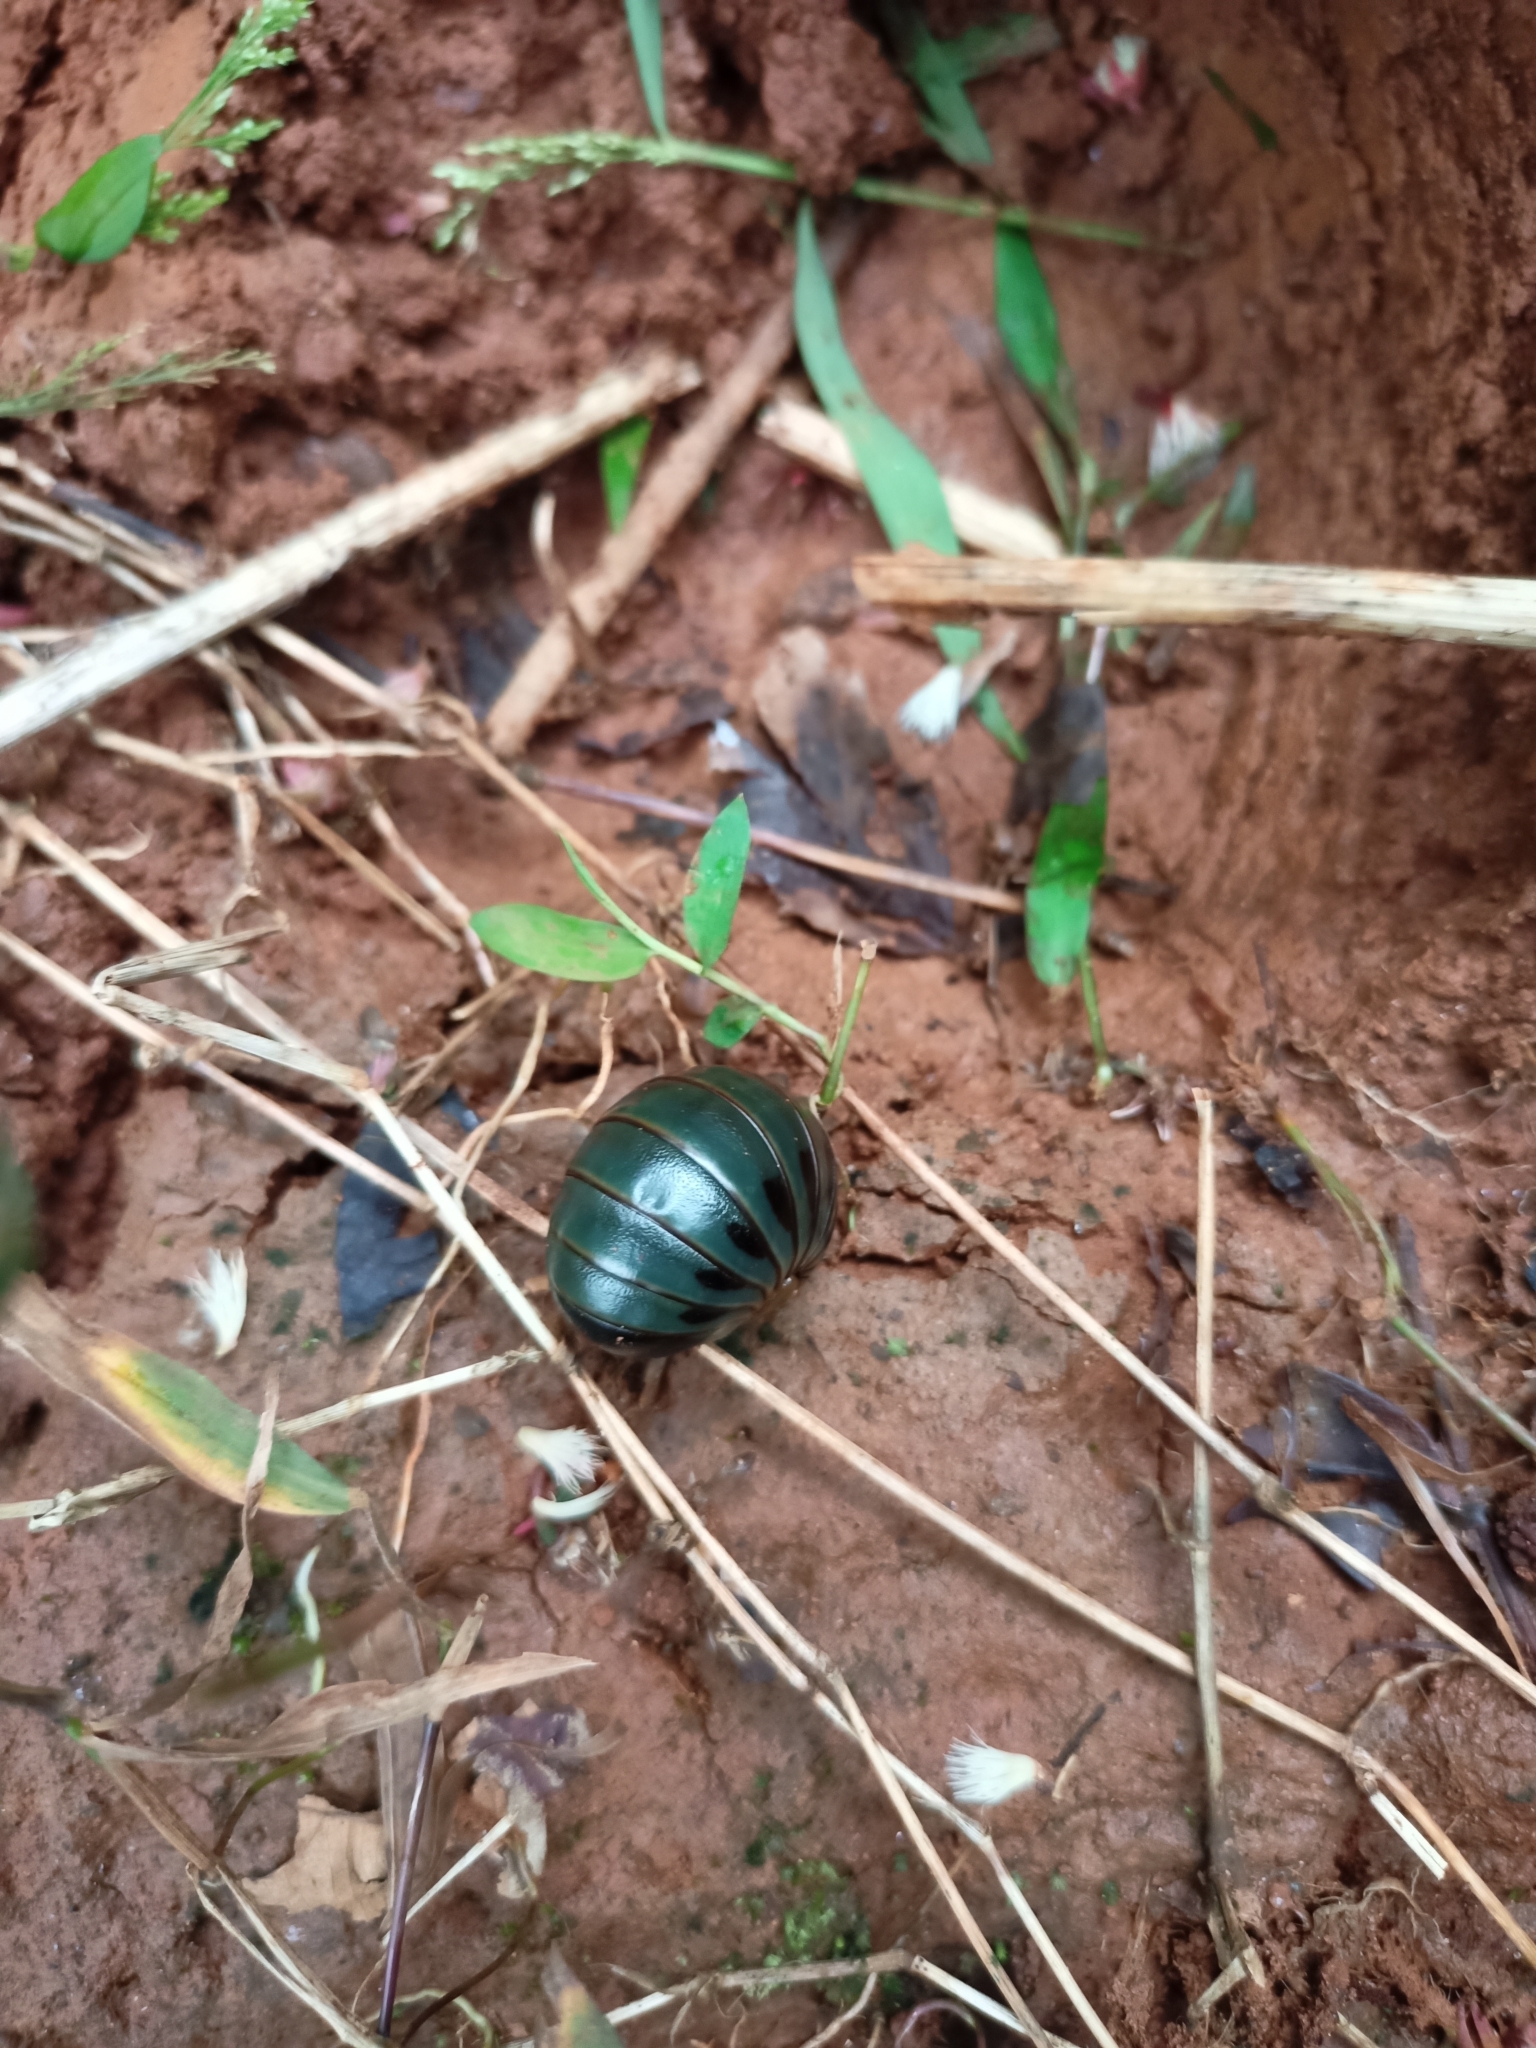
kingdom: Animalia
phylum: Arthropoda
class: Diplopoda
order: Sphaerotheriida
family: Arthrosphaeridae
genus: Arthrosphaera
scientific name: Arthrosphaera fumosa
